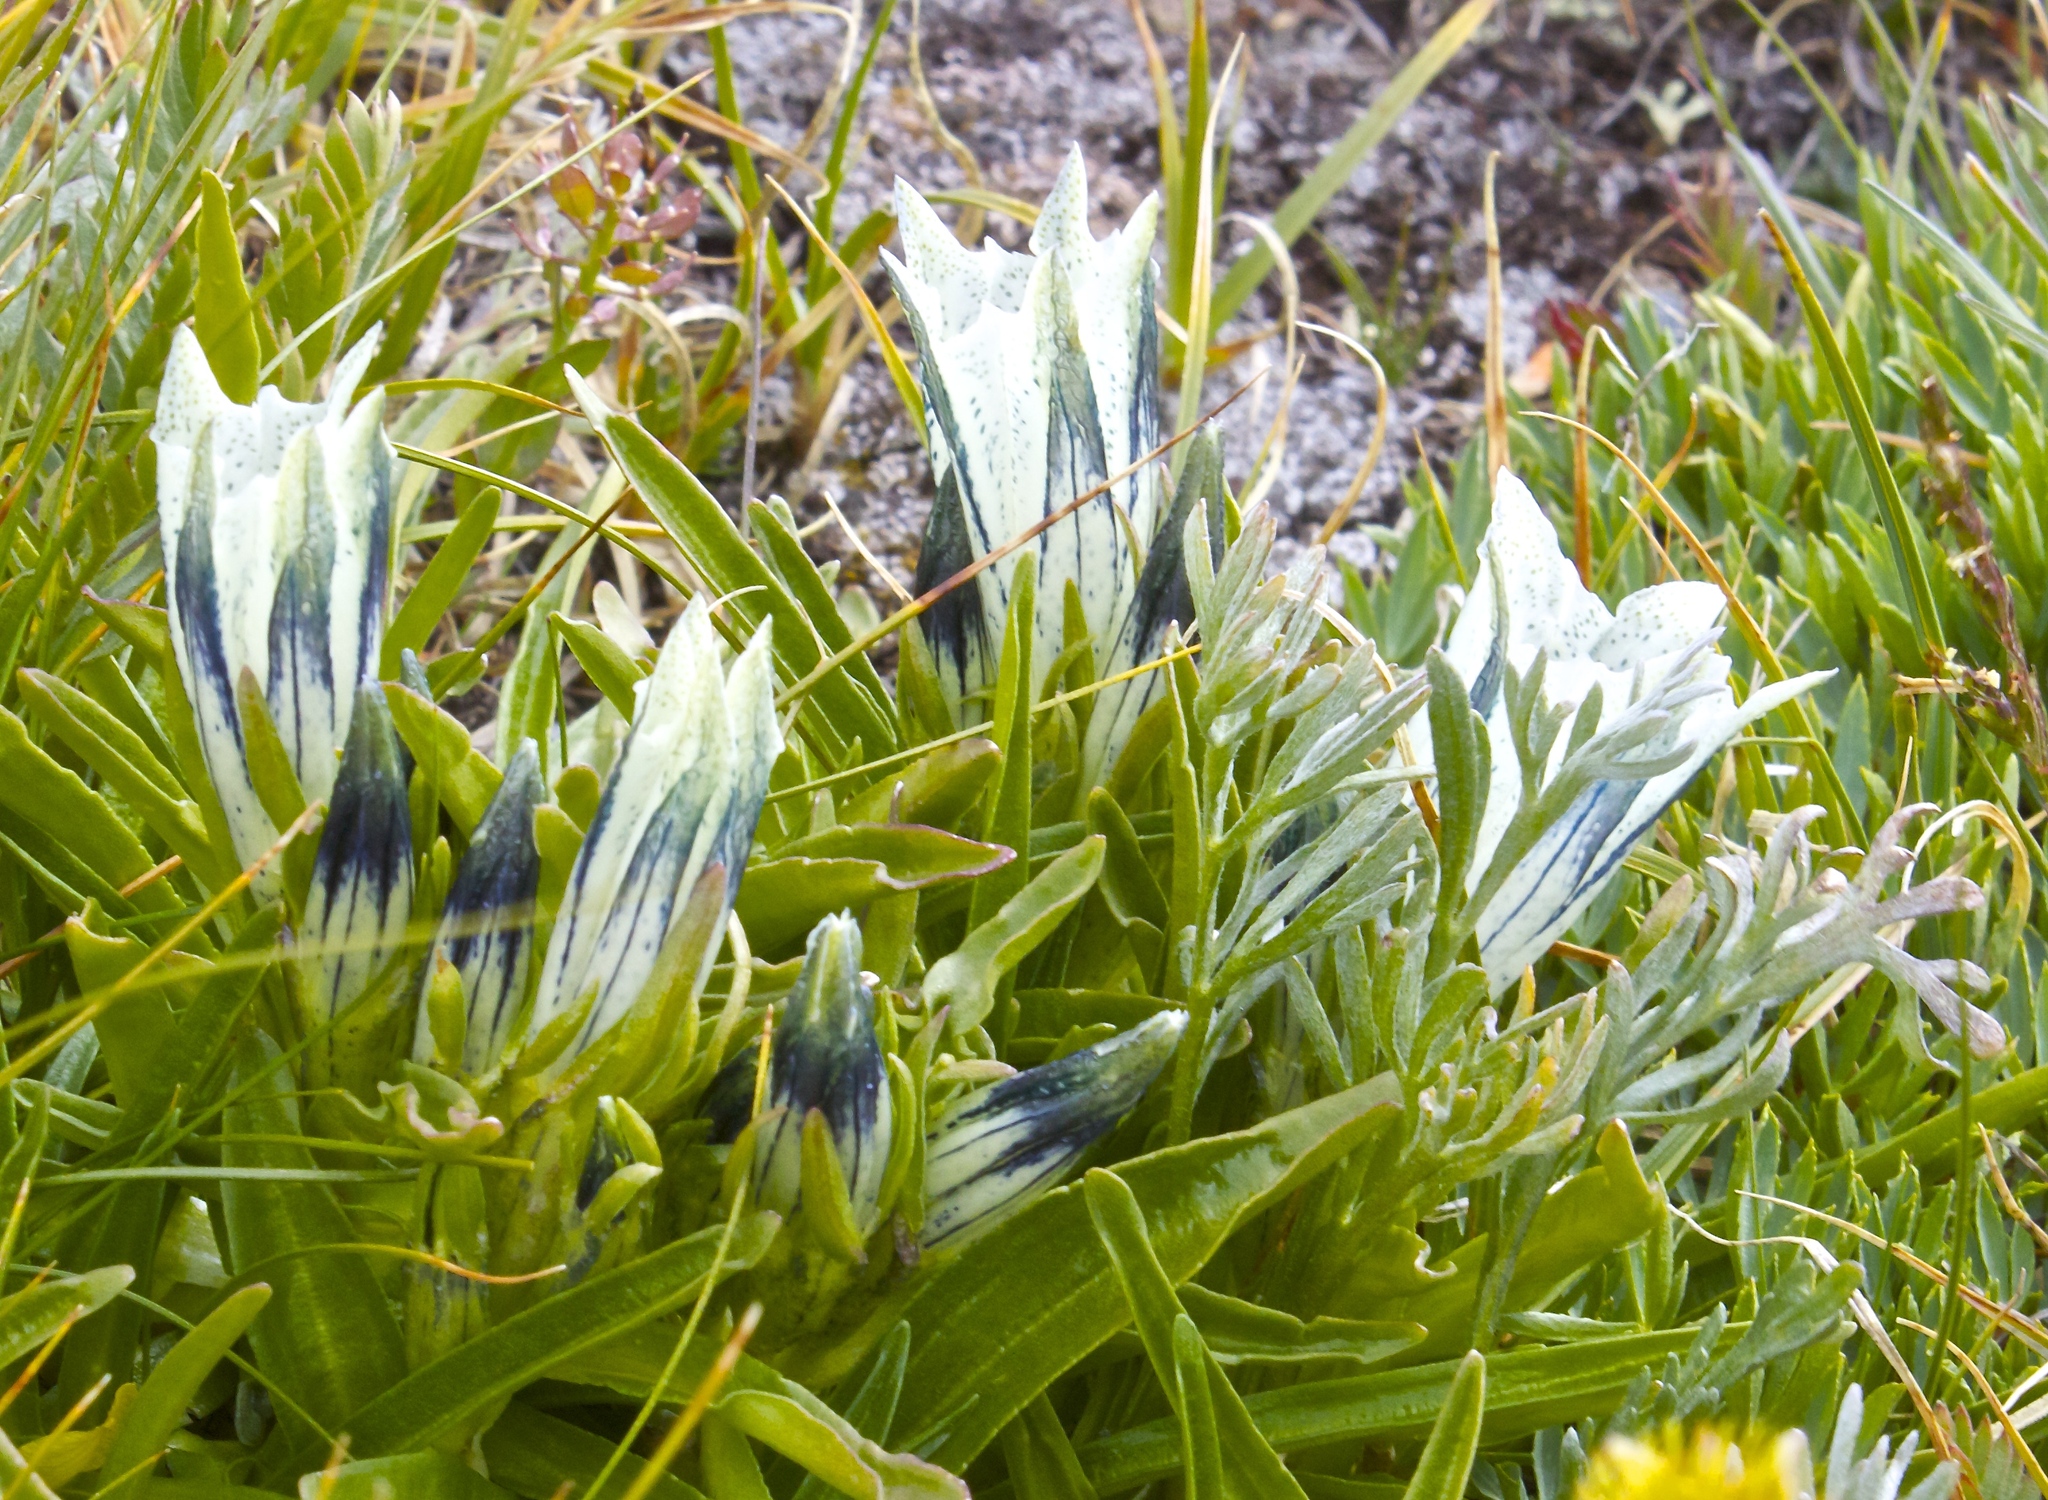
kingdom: Plantae
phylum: Tracheophyta
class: Magnoliopsida
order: Gentianales
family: Gentianaceae
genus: Gentiana
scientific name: Gentiana algida
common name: Arctic gentian
